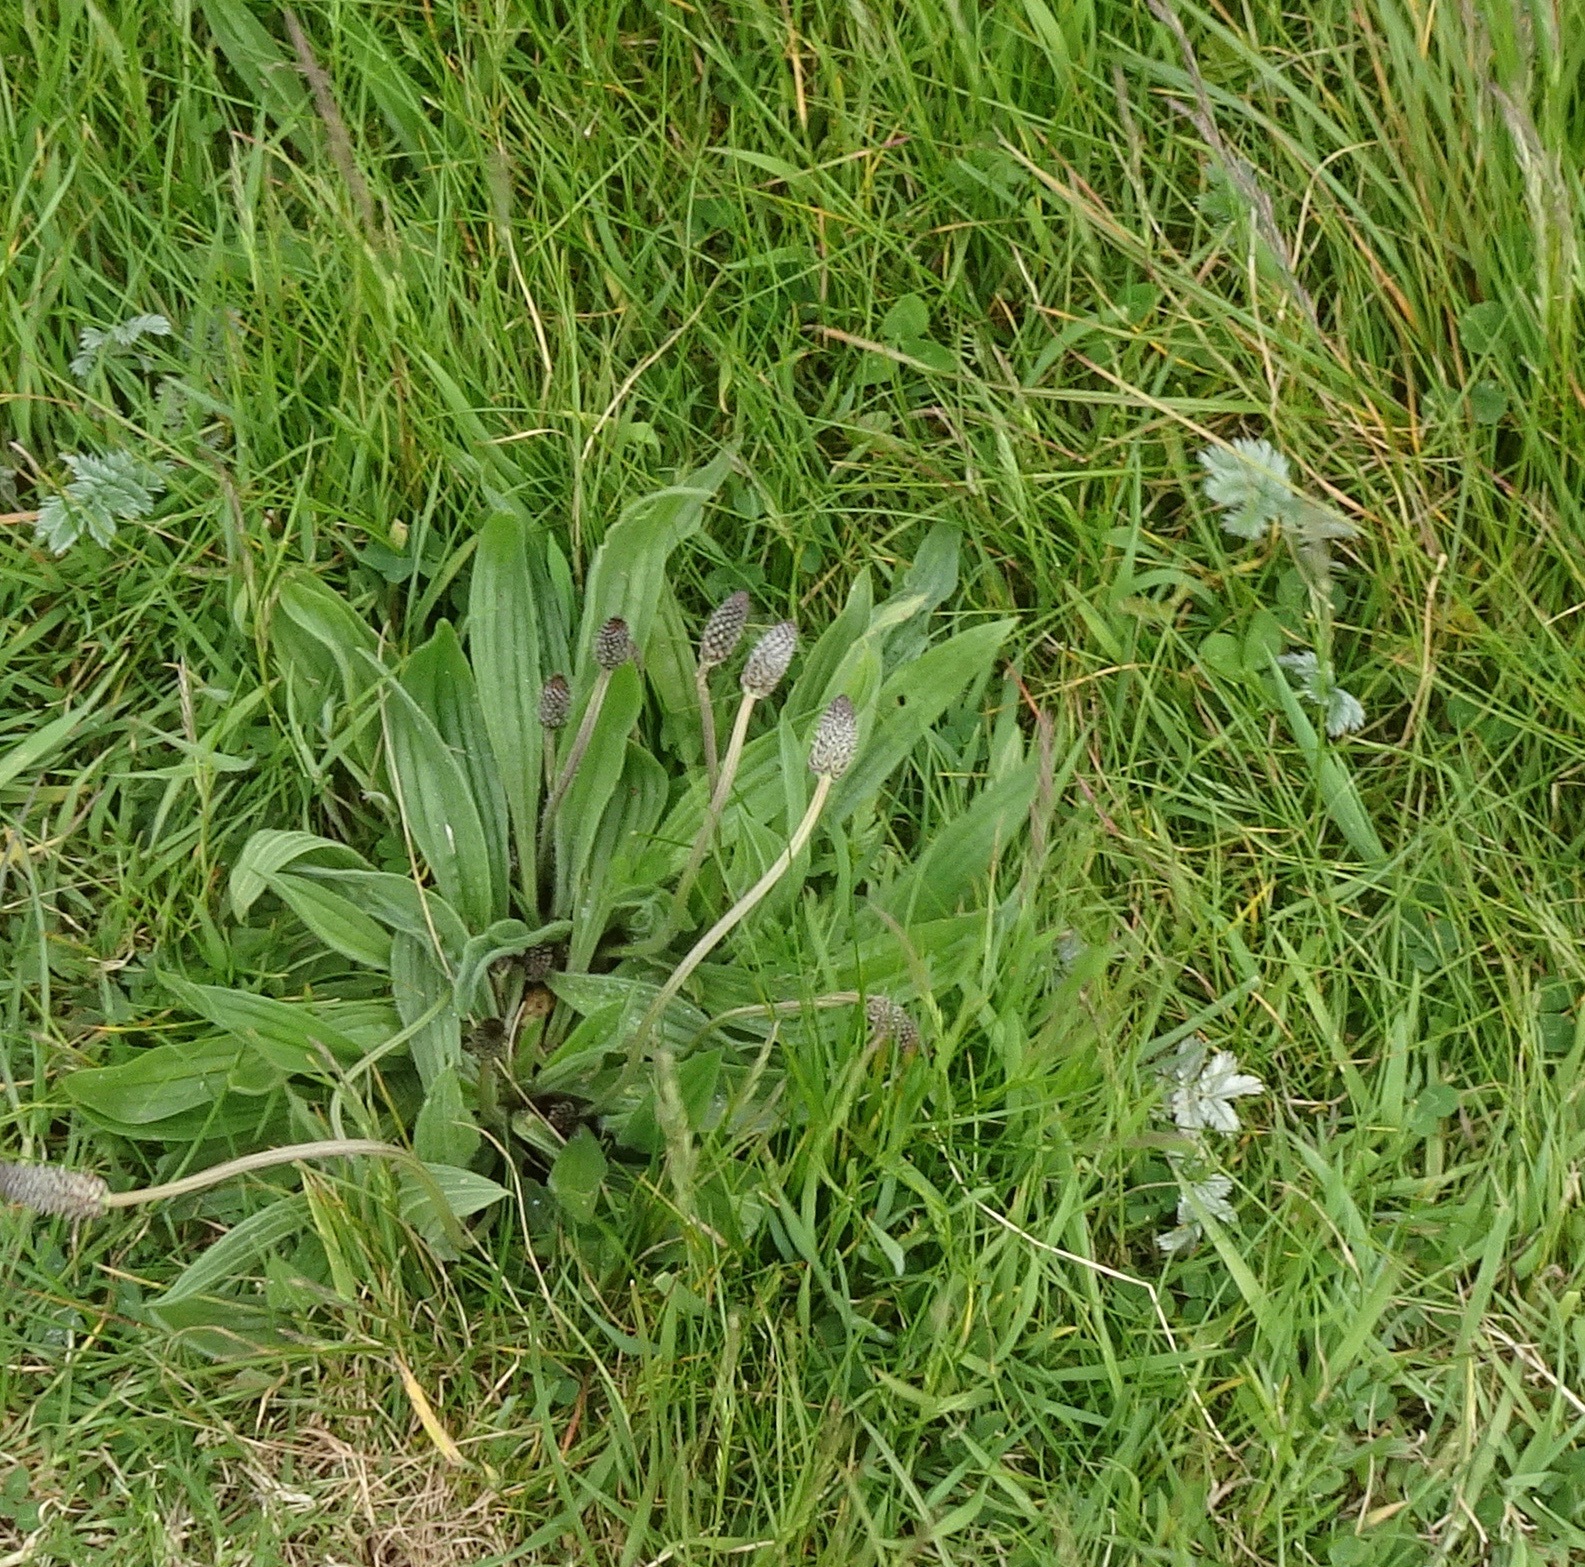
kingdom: Plantae
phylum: Tracheophyta
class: Magnoliopsida
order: Lamiales
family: Plantaginaceae
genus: Plantago
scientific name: Plantago lanceolata
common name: Ribwort plantain
